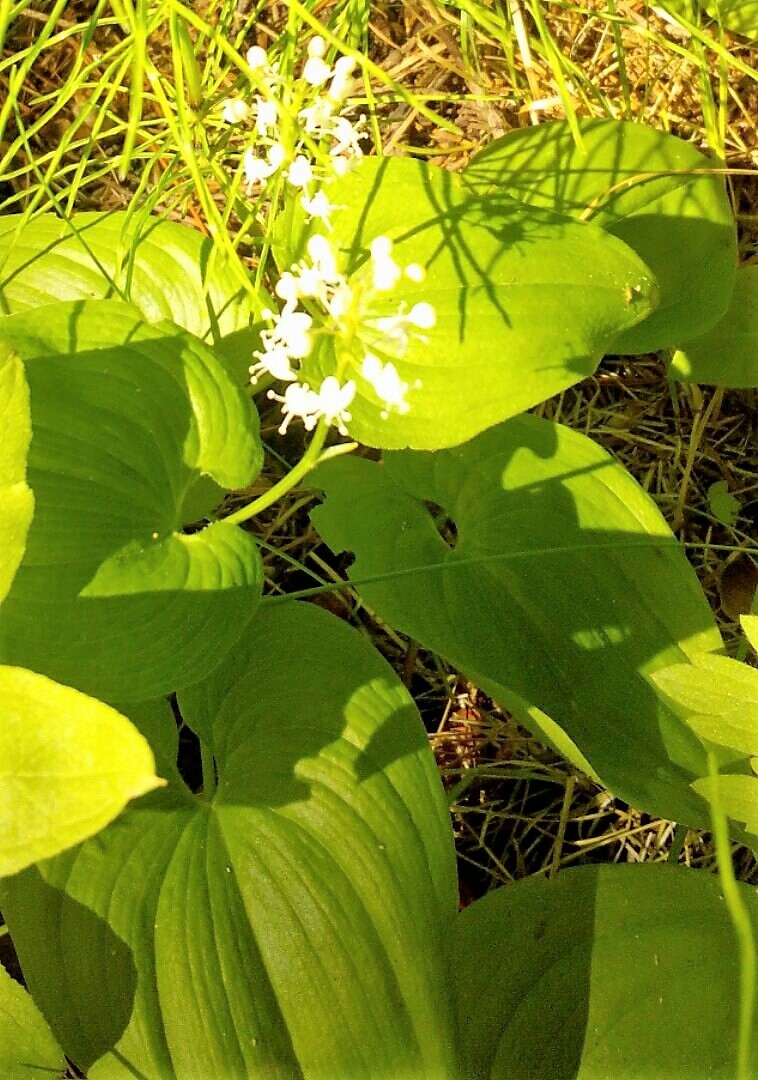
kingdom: Plantae
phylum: Tracheophyta
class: Liliopsida
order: Asparagales
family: Asparagaceae
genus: Maianthemum
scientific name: Maianthemum bifolium
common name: May lily
